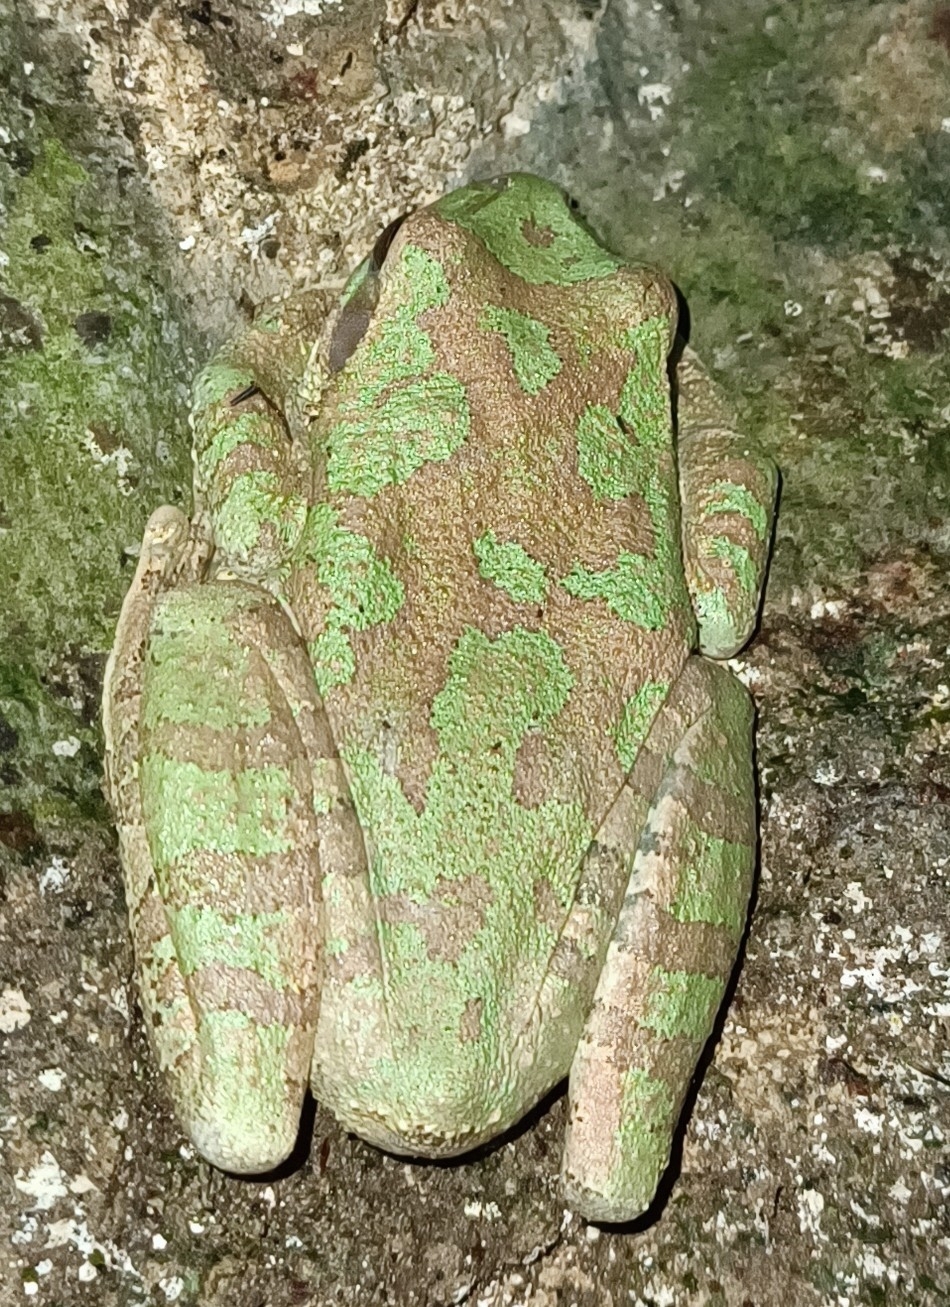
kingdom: Animalia
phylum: Chordata
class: Amphibia
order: Anura
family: Hylidae
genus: Smilisca
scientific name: Smilisca baudinii
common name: Mexican smilisca
